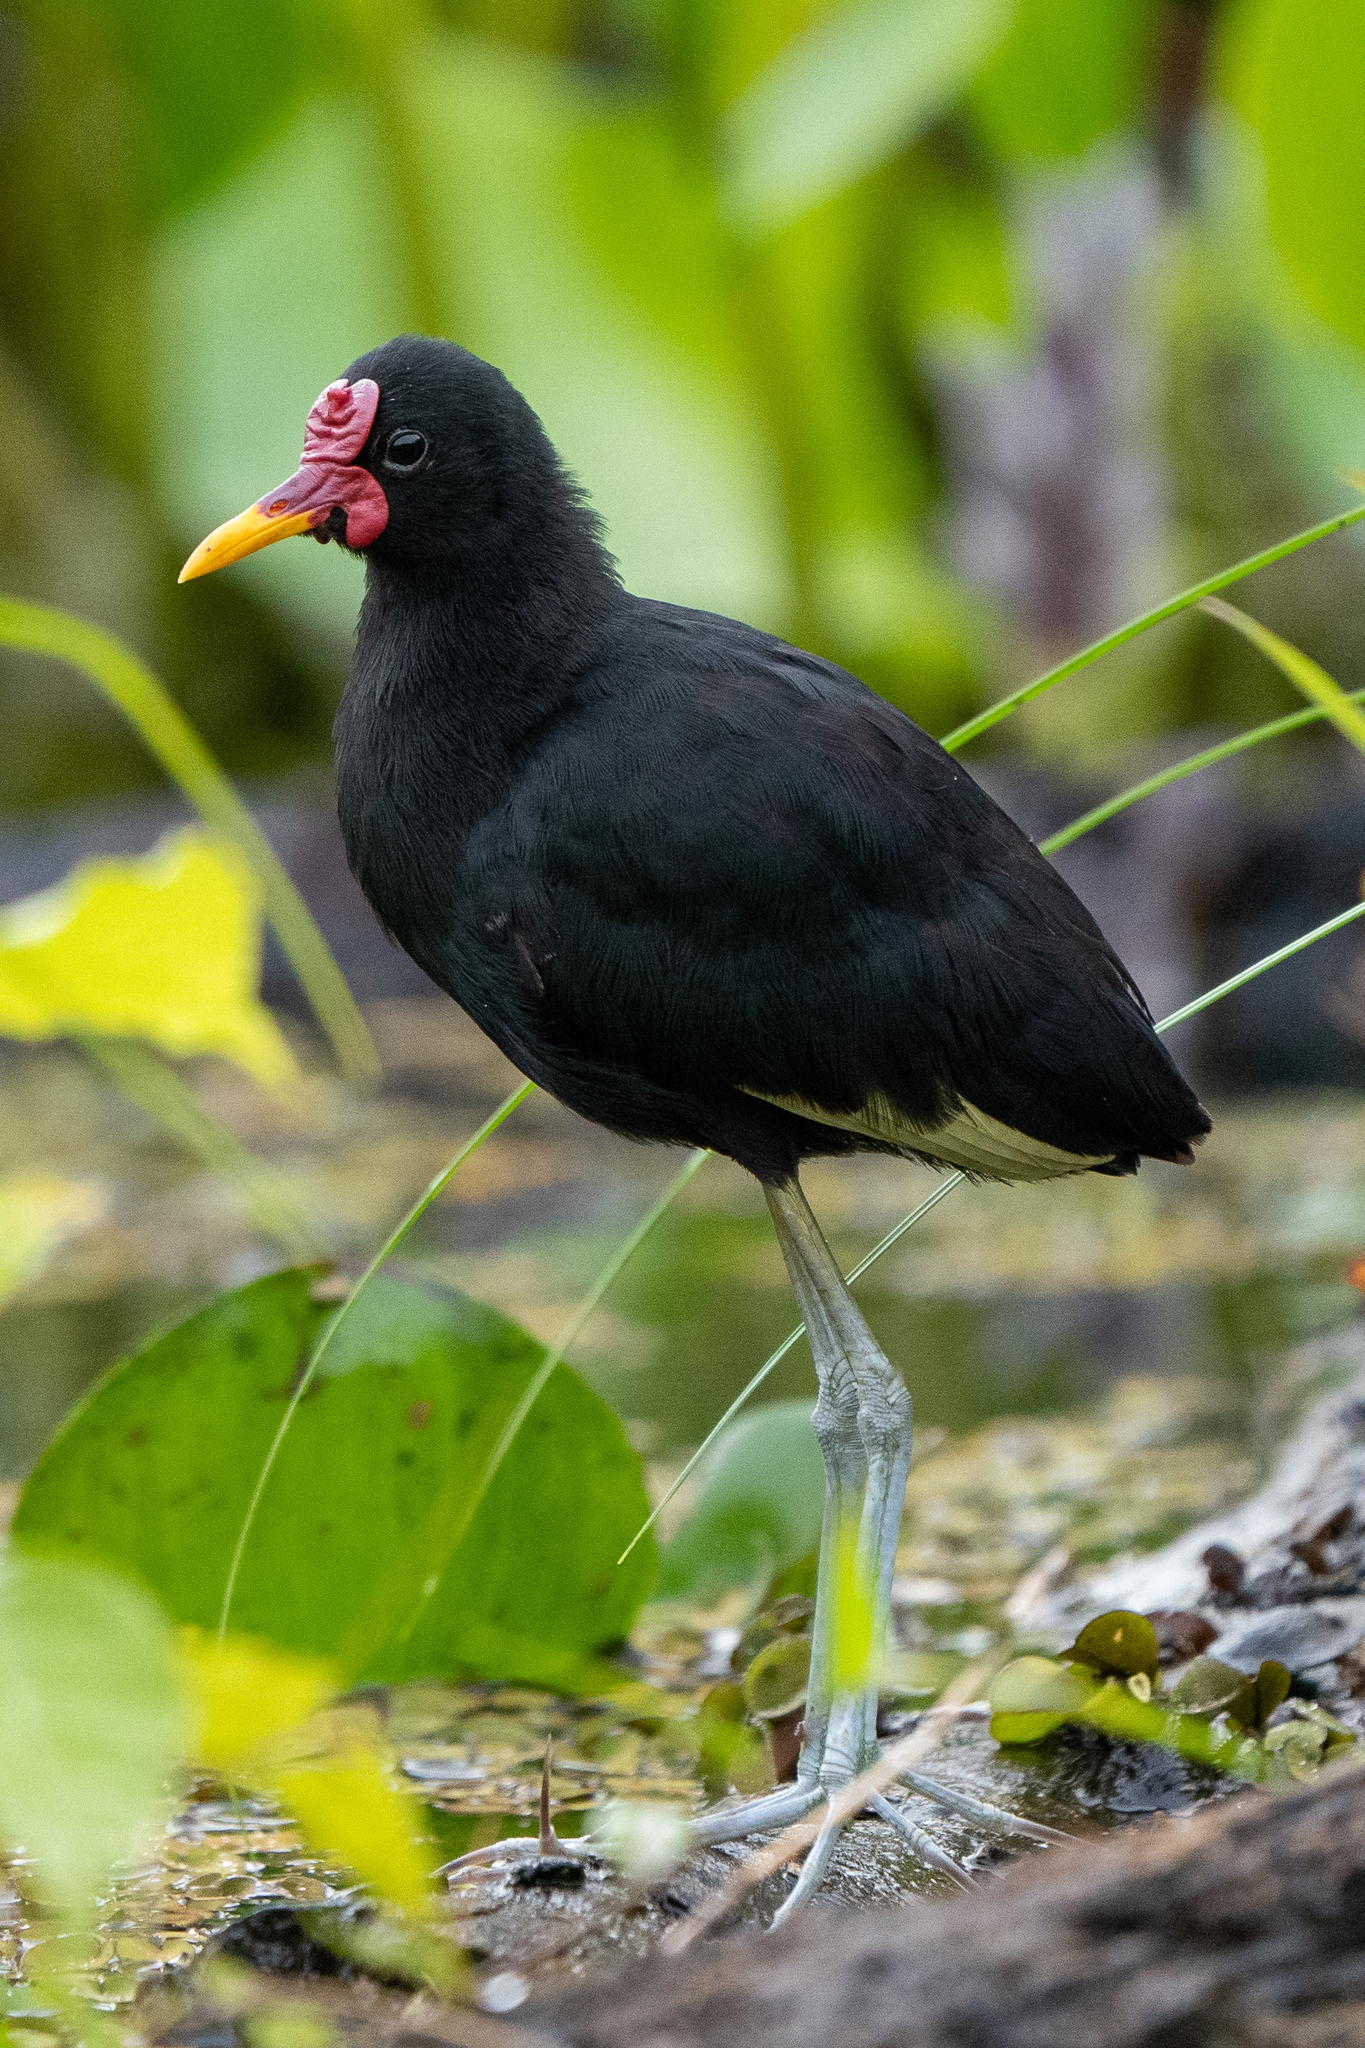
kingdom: Animalia
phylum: Chordata
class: Aves
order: Charadriiformes
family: Jacanidae
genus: Jacana
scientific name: Jacana jacana
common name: Wattled jacana
